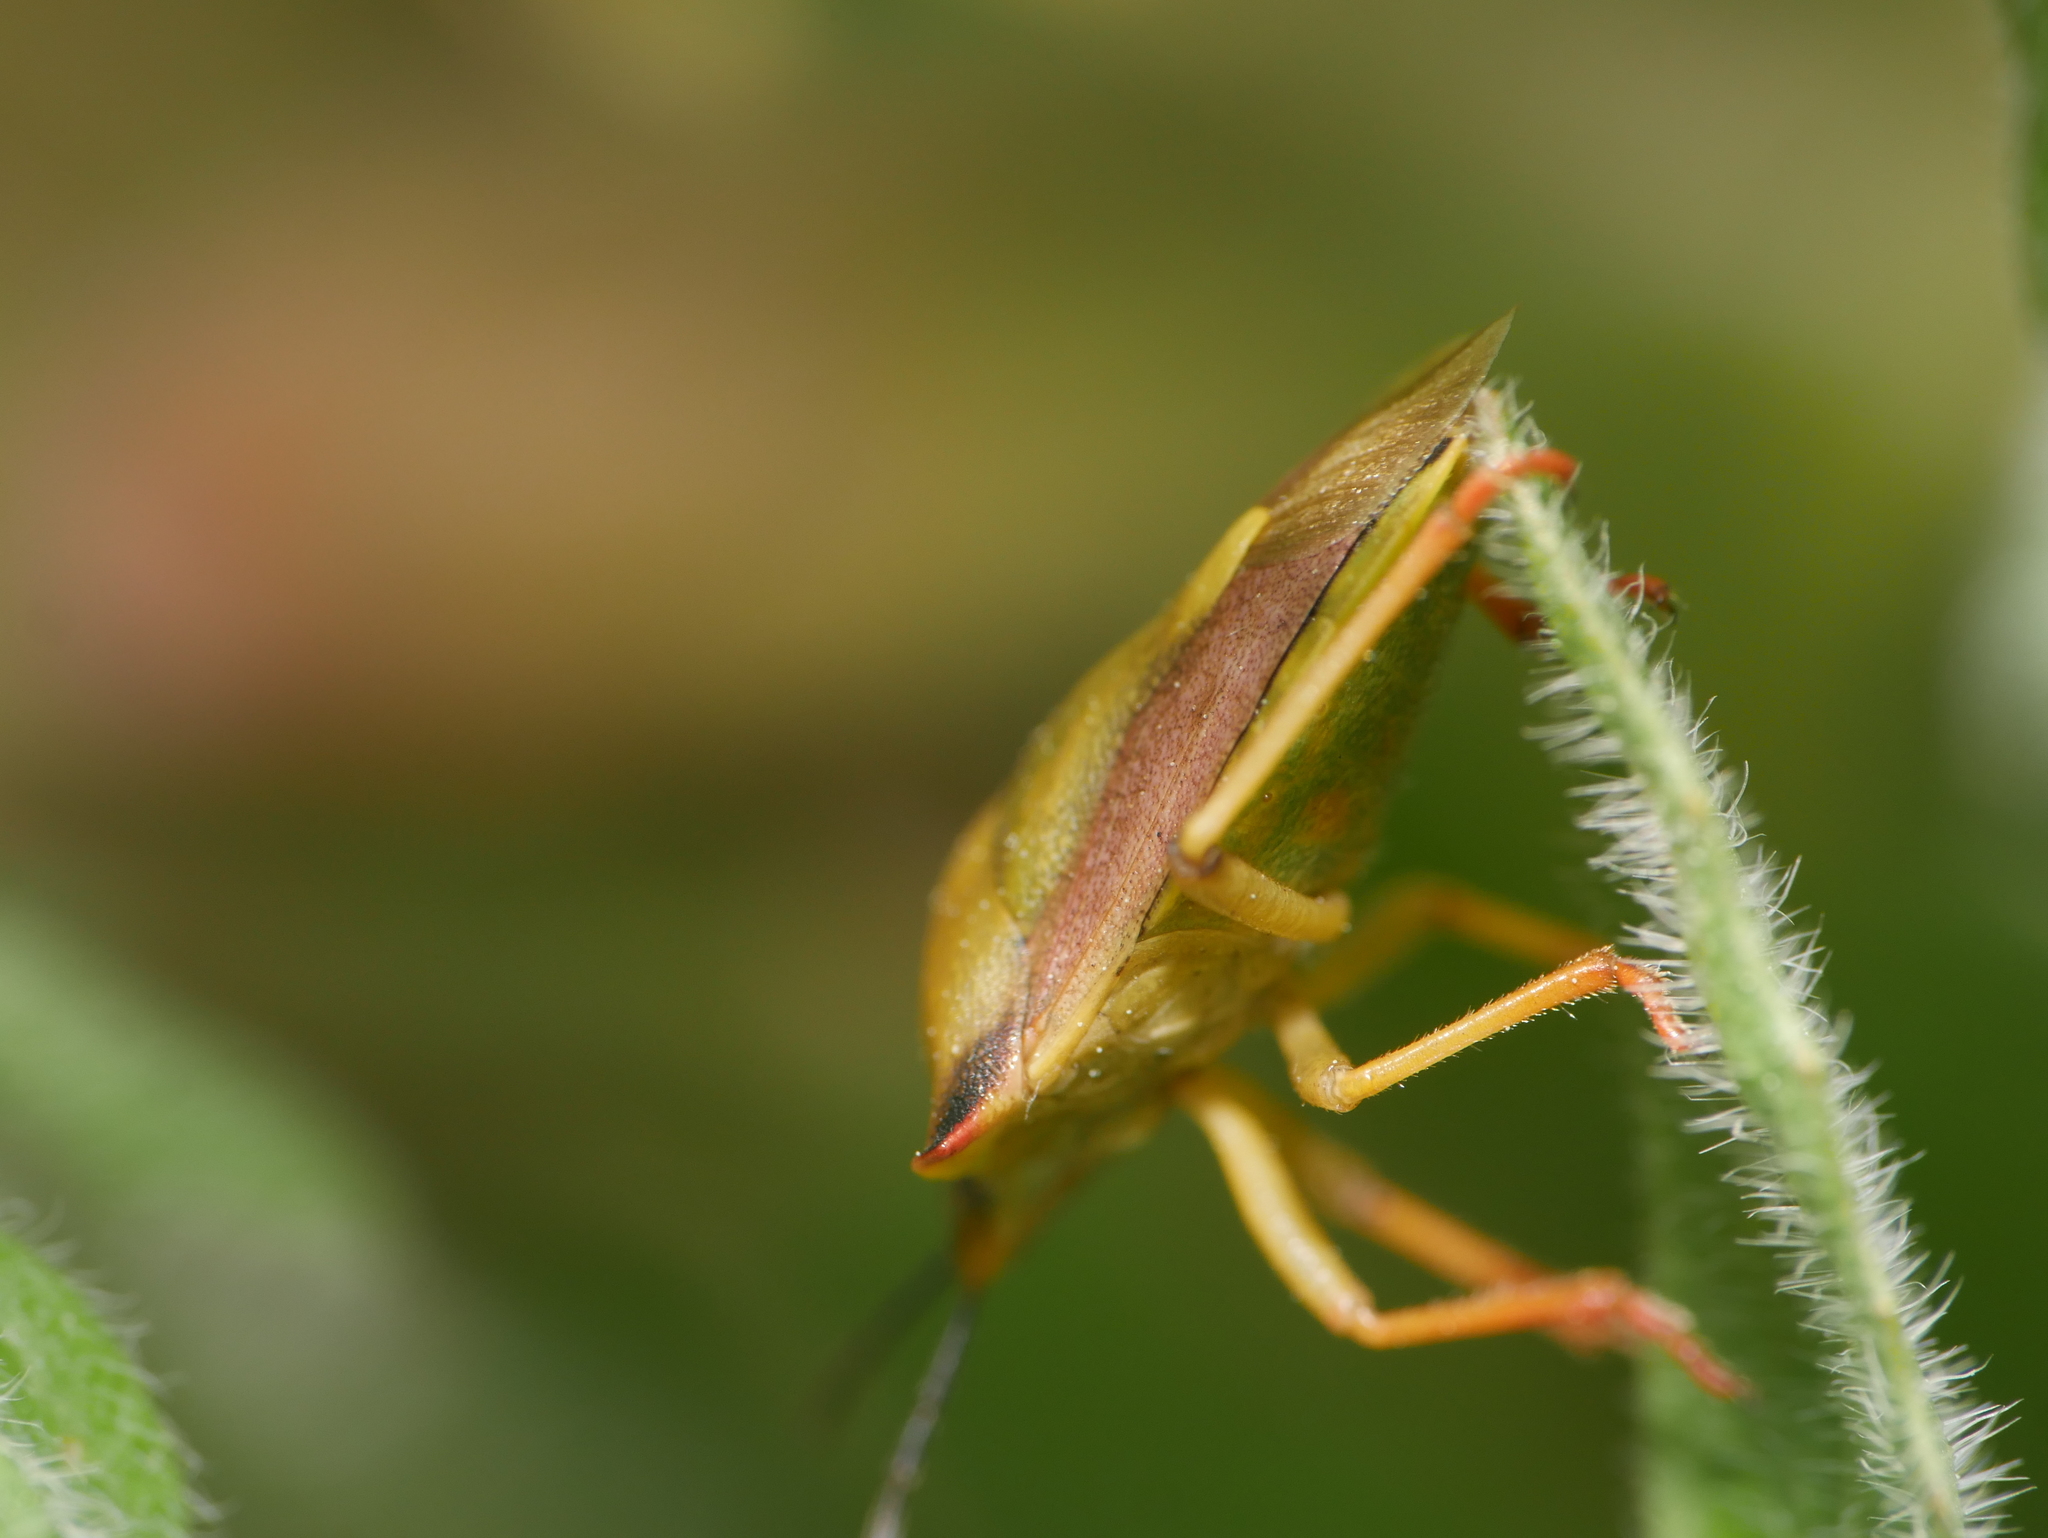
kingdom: Animalia
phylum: Arthropoda
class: Insecta
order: Hemiptera
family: Pentatomidae
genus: Carpocoris
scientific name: Carpocoris fuscispinus
